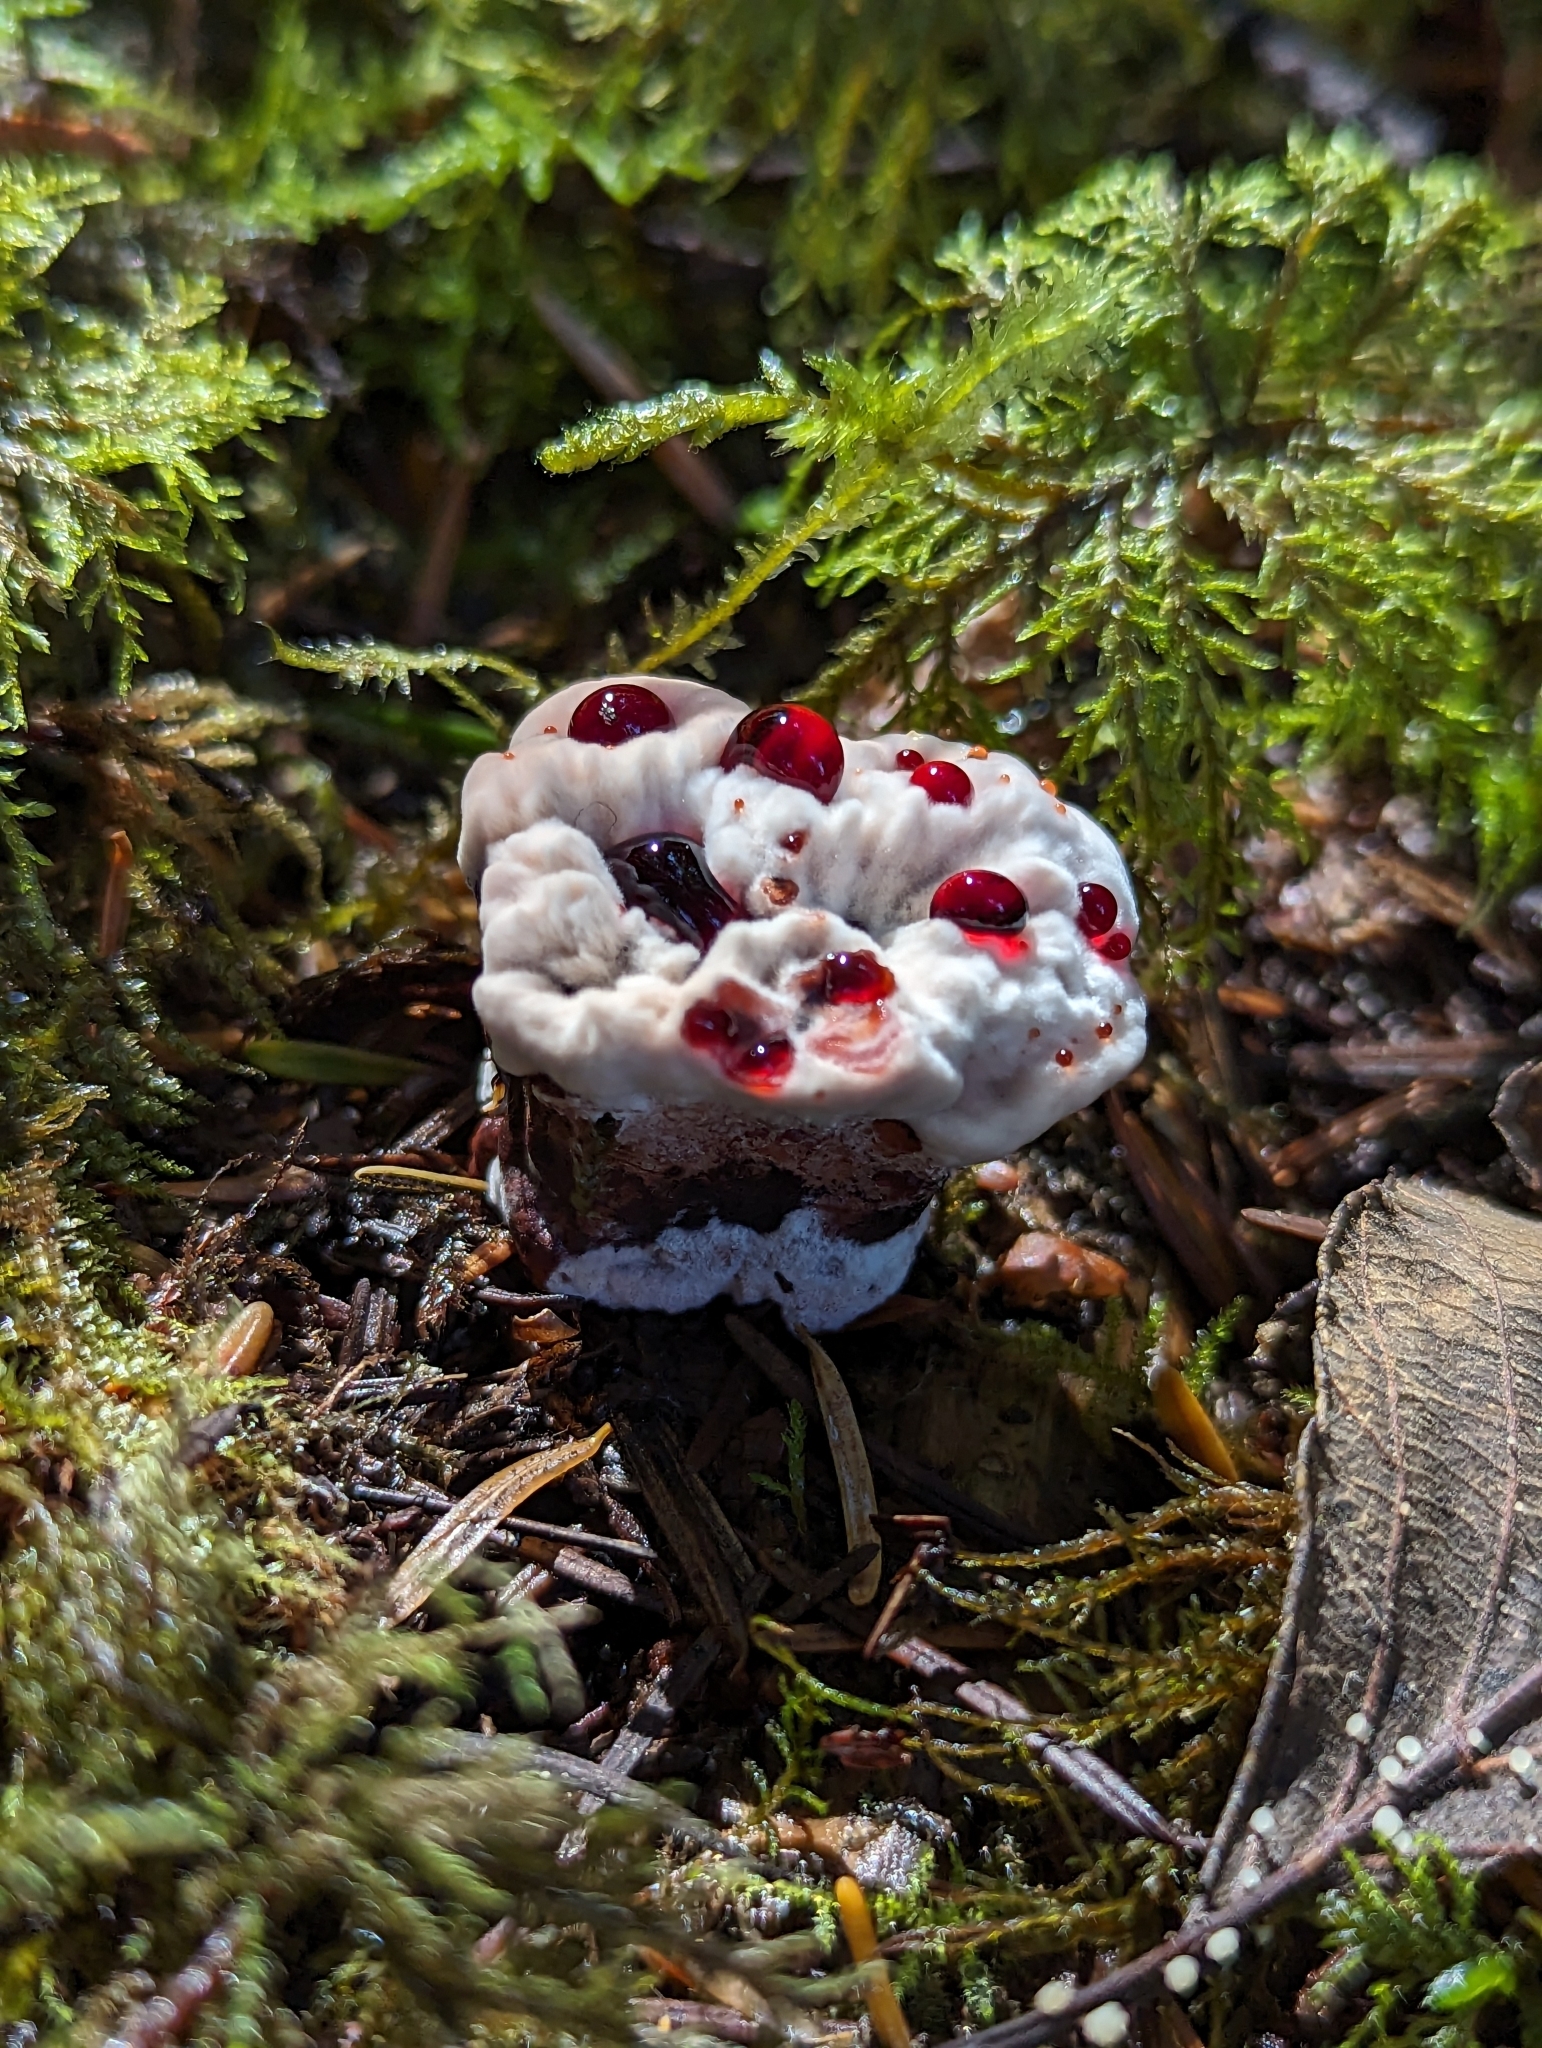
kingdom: Fungi
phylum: Basidiomycota
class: Agaricomycetes
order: Thelephorales
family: Bankeraceae
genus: Hydnellum
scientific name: Hydnellum peckii
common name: Devil's tooth
